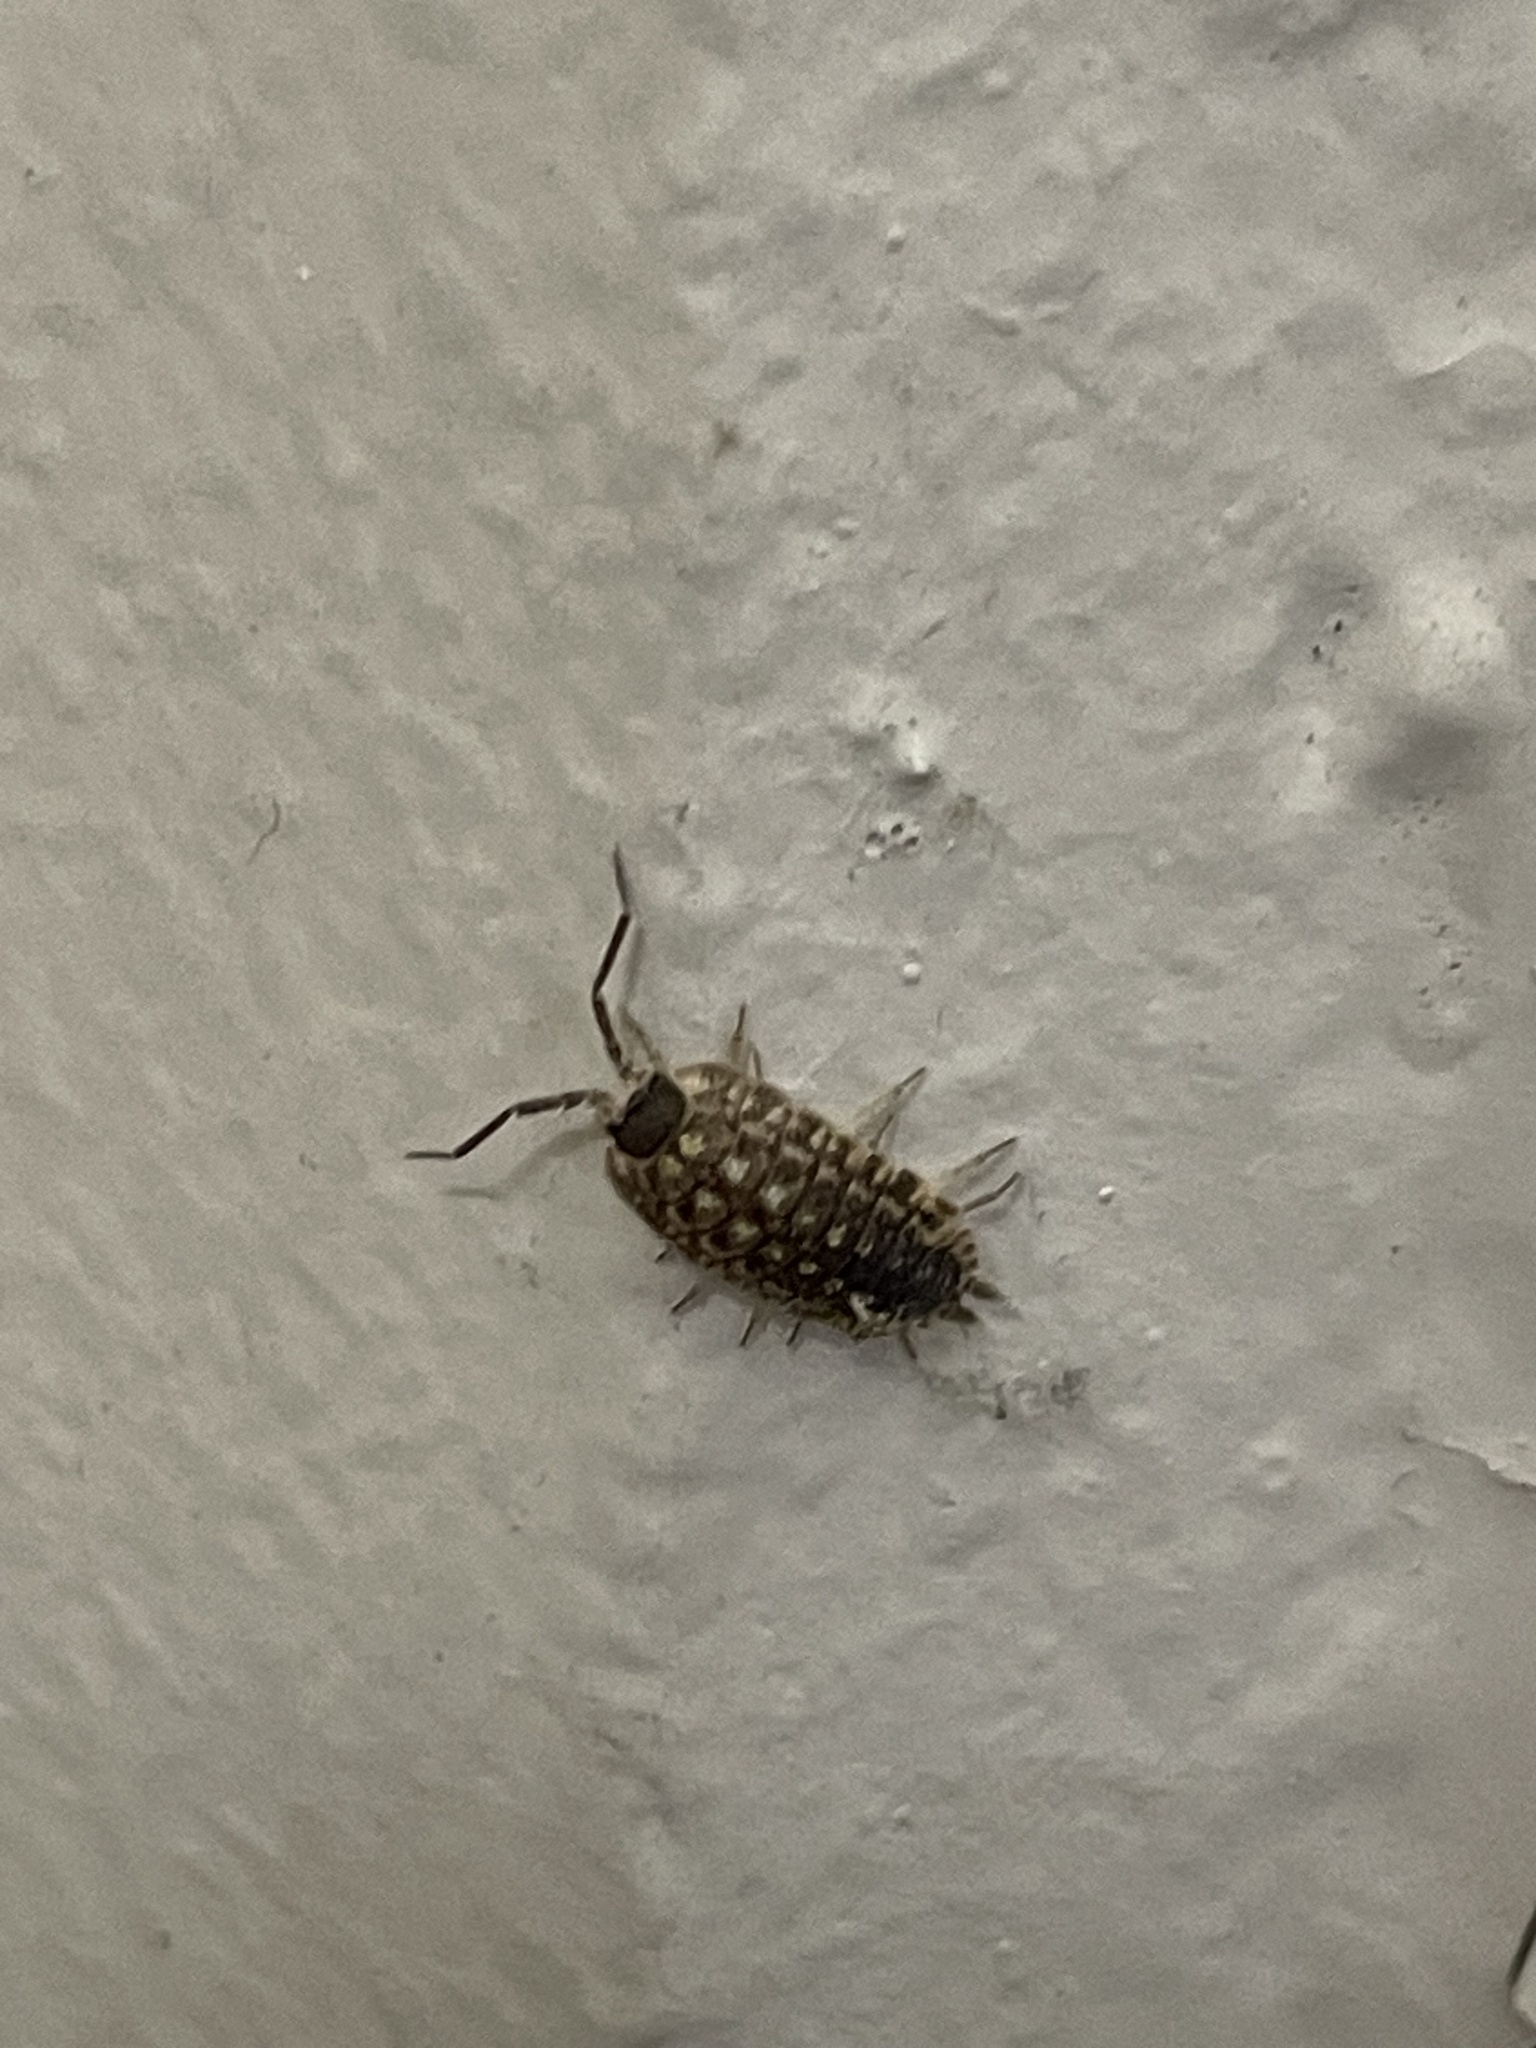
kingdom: Animalia
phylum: Arthropoda
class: Malacostraca
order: Isopoda
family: Porcellionidae
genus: Porcellio
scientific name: Porcellio spinicornis
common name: Painted woodlouse
